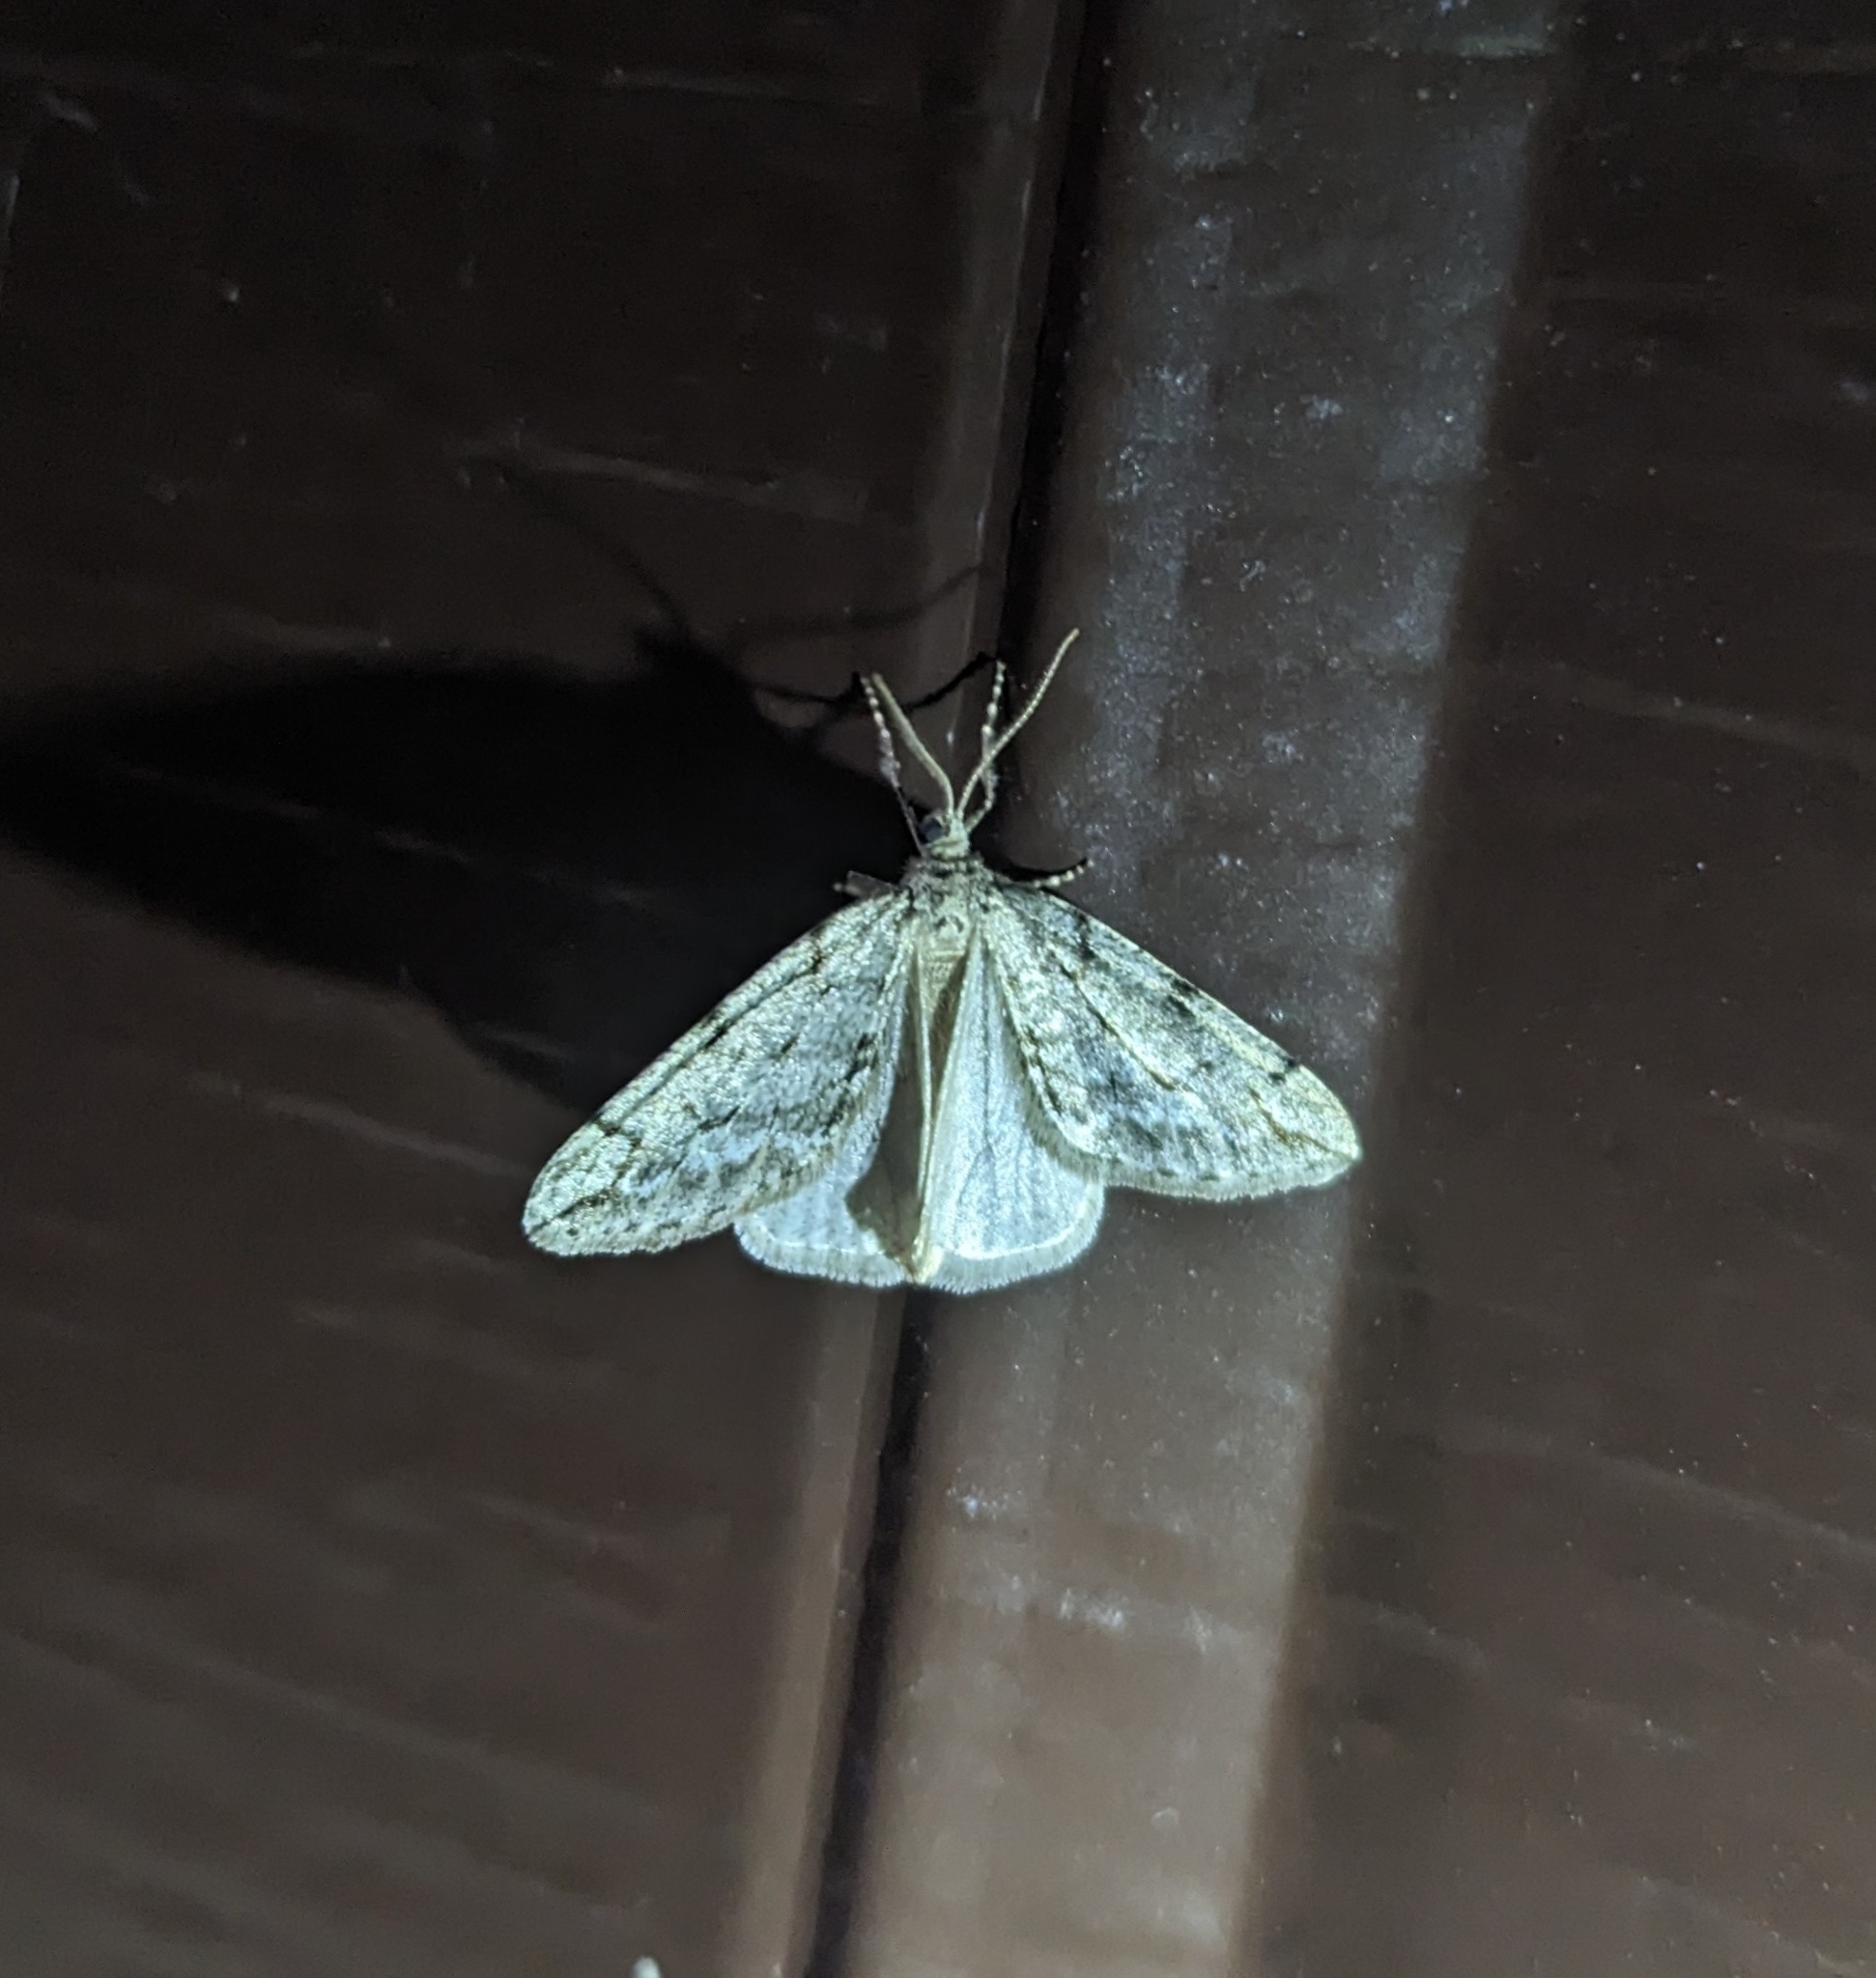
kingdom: Animalia
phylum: Arthropoda
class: Insecta
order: Lepidoptera
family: Geometridae
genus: Paleacrita
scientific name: Paleacrita vernata
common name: Spring cankerworm
